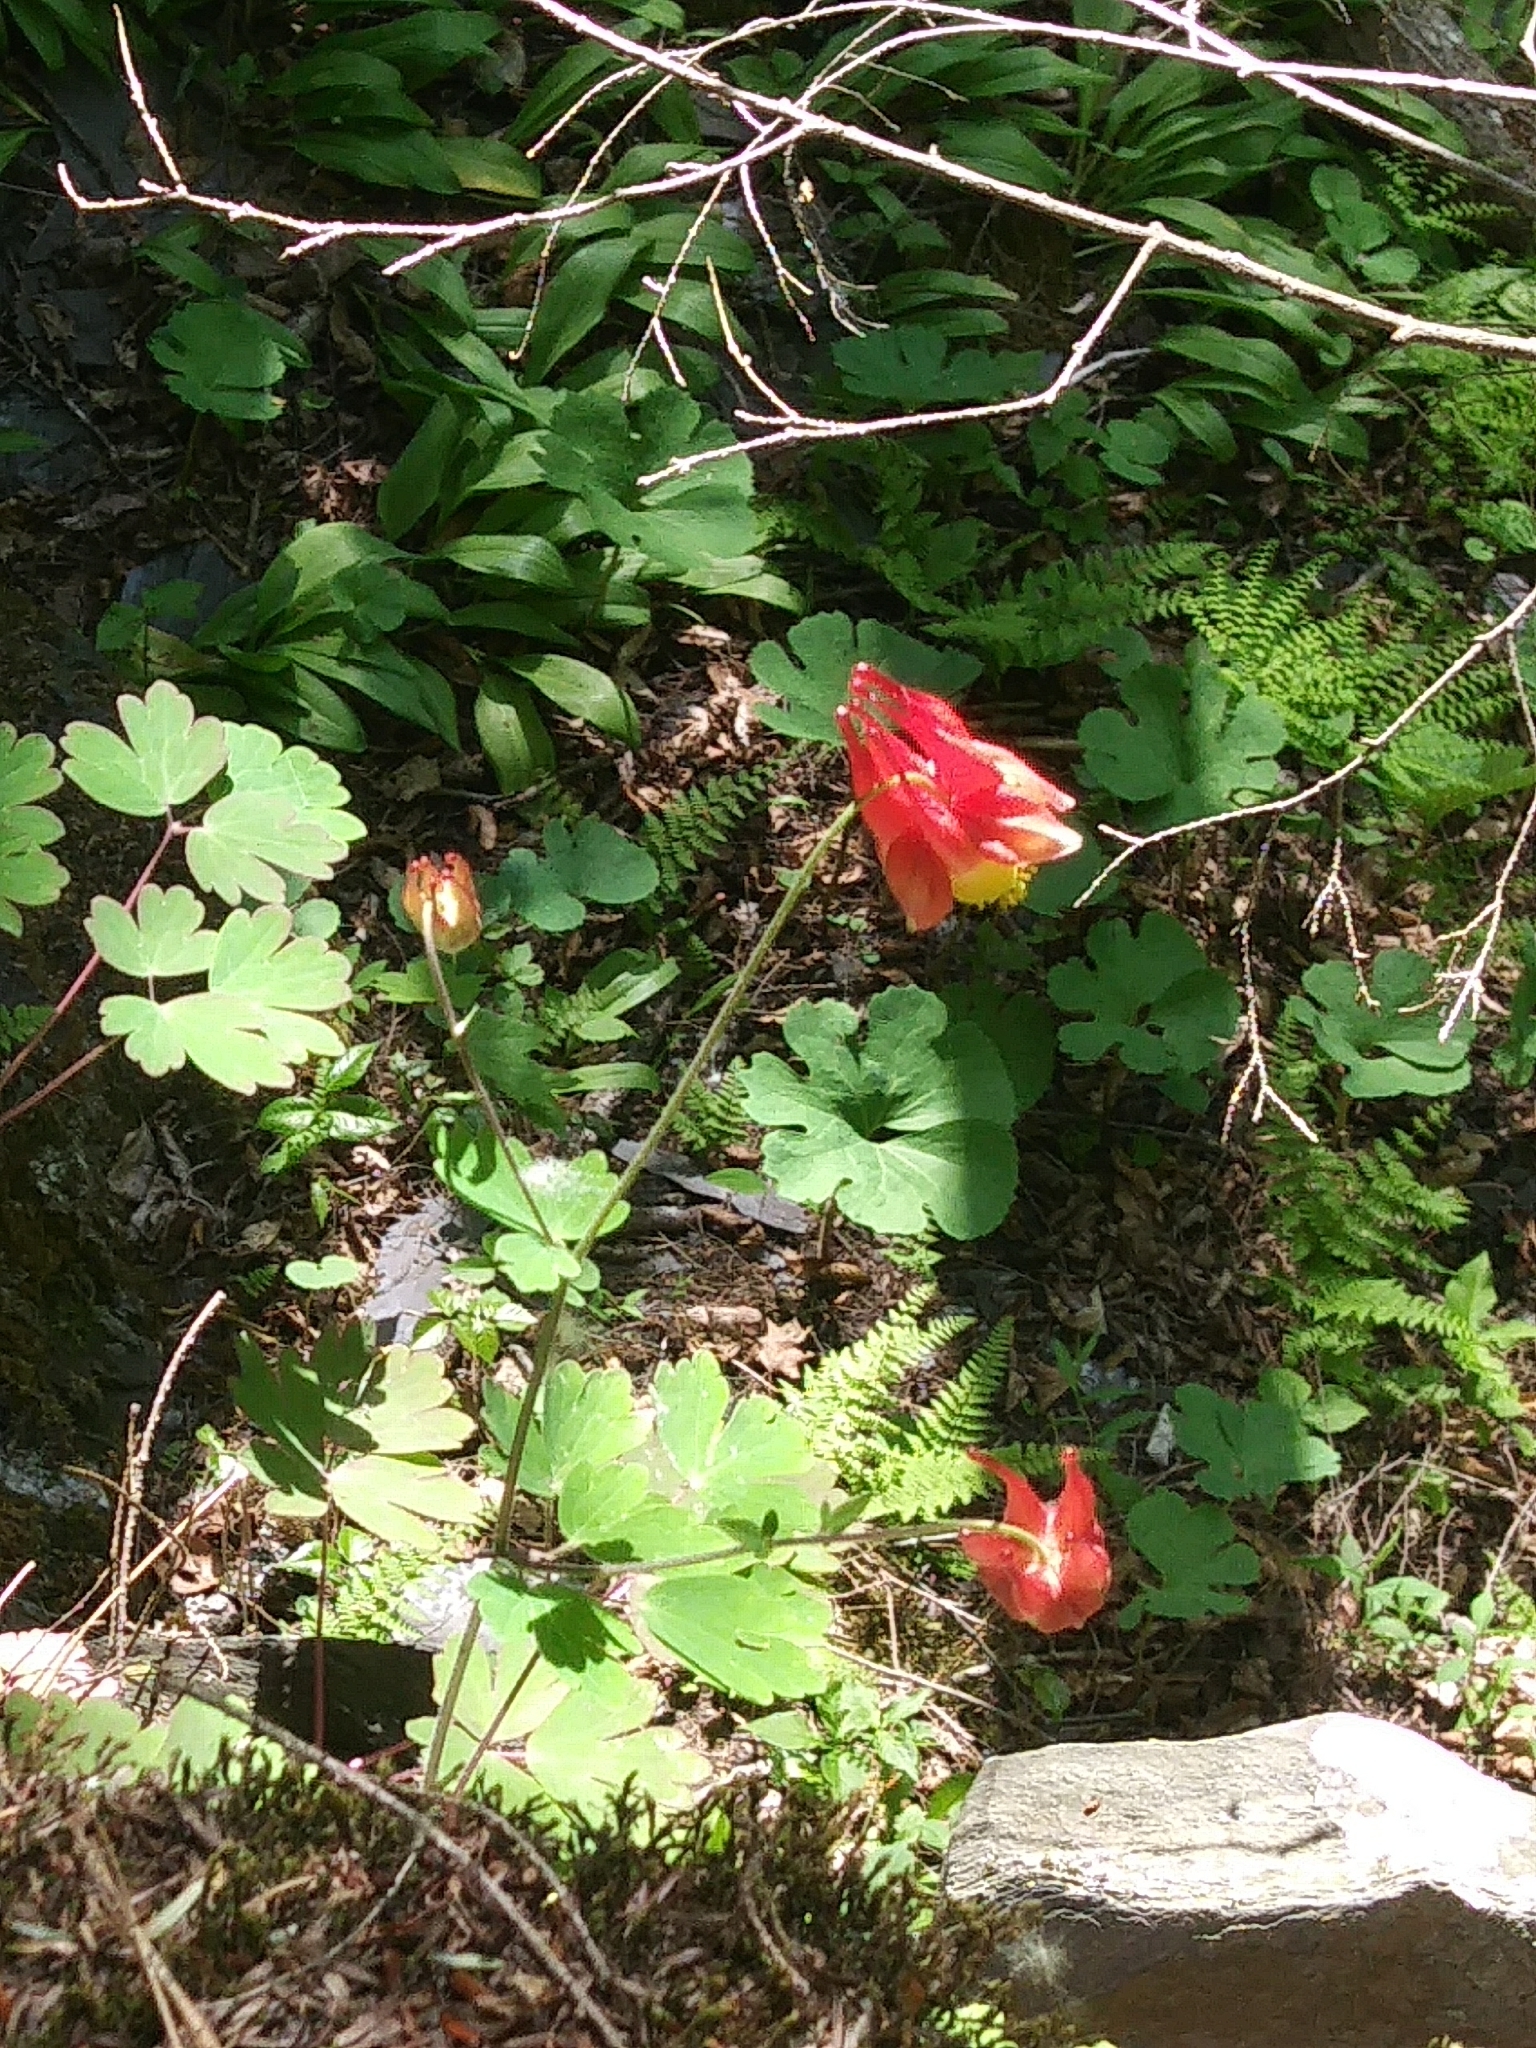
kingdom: Plantae
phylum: Tracheophyta
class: Magnoliopsida
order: Ranunculales
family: Ranunculaceae
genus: Aquilegia
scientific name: Aquilegia canadensis
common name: American columbine
